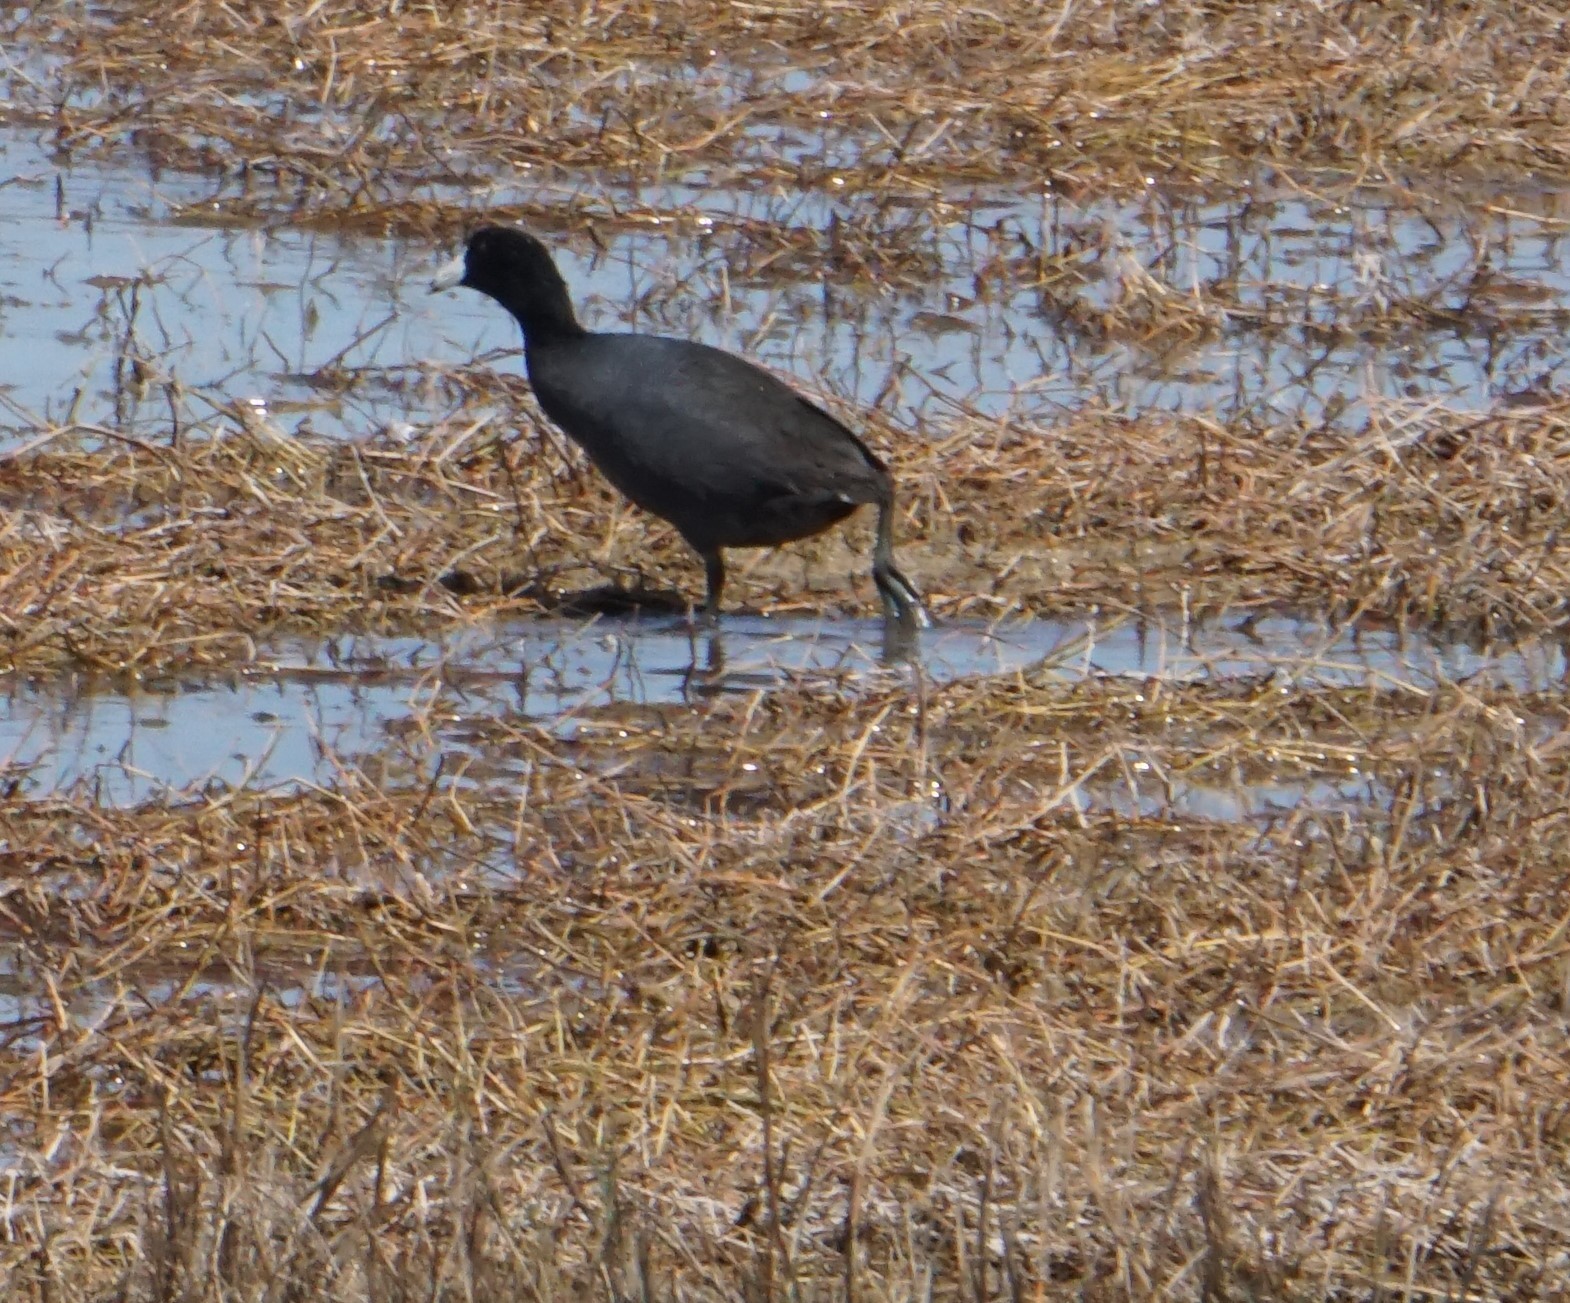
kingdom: Animalia
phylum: Chordata
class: Aves
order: Gruiformes
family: Rallidae
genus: Fulica
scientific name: Fulica americana
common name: American coot
